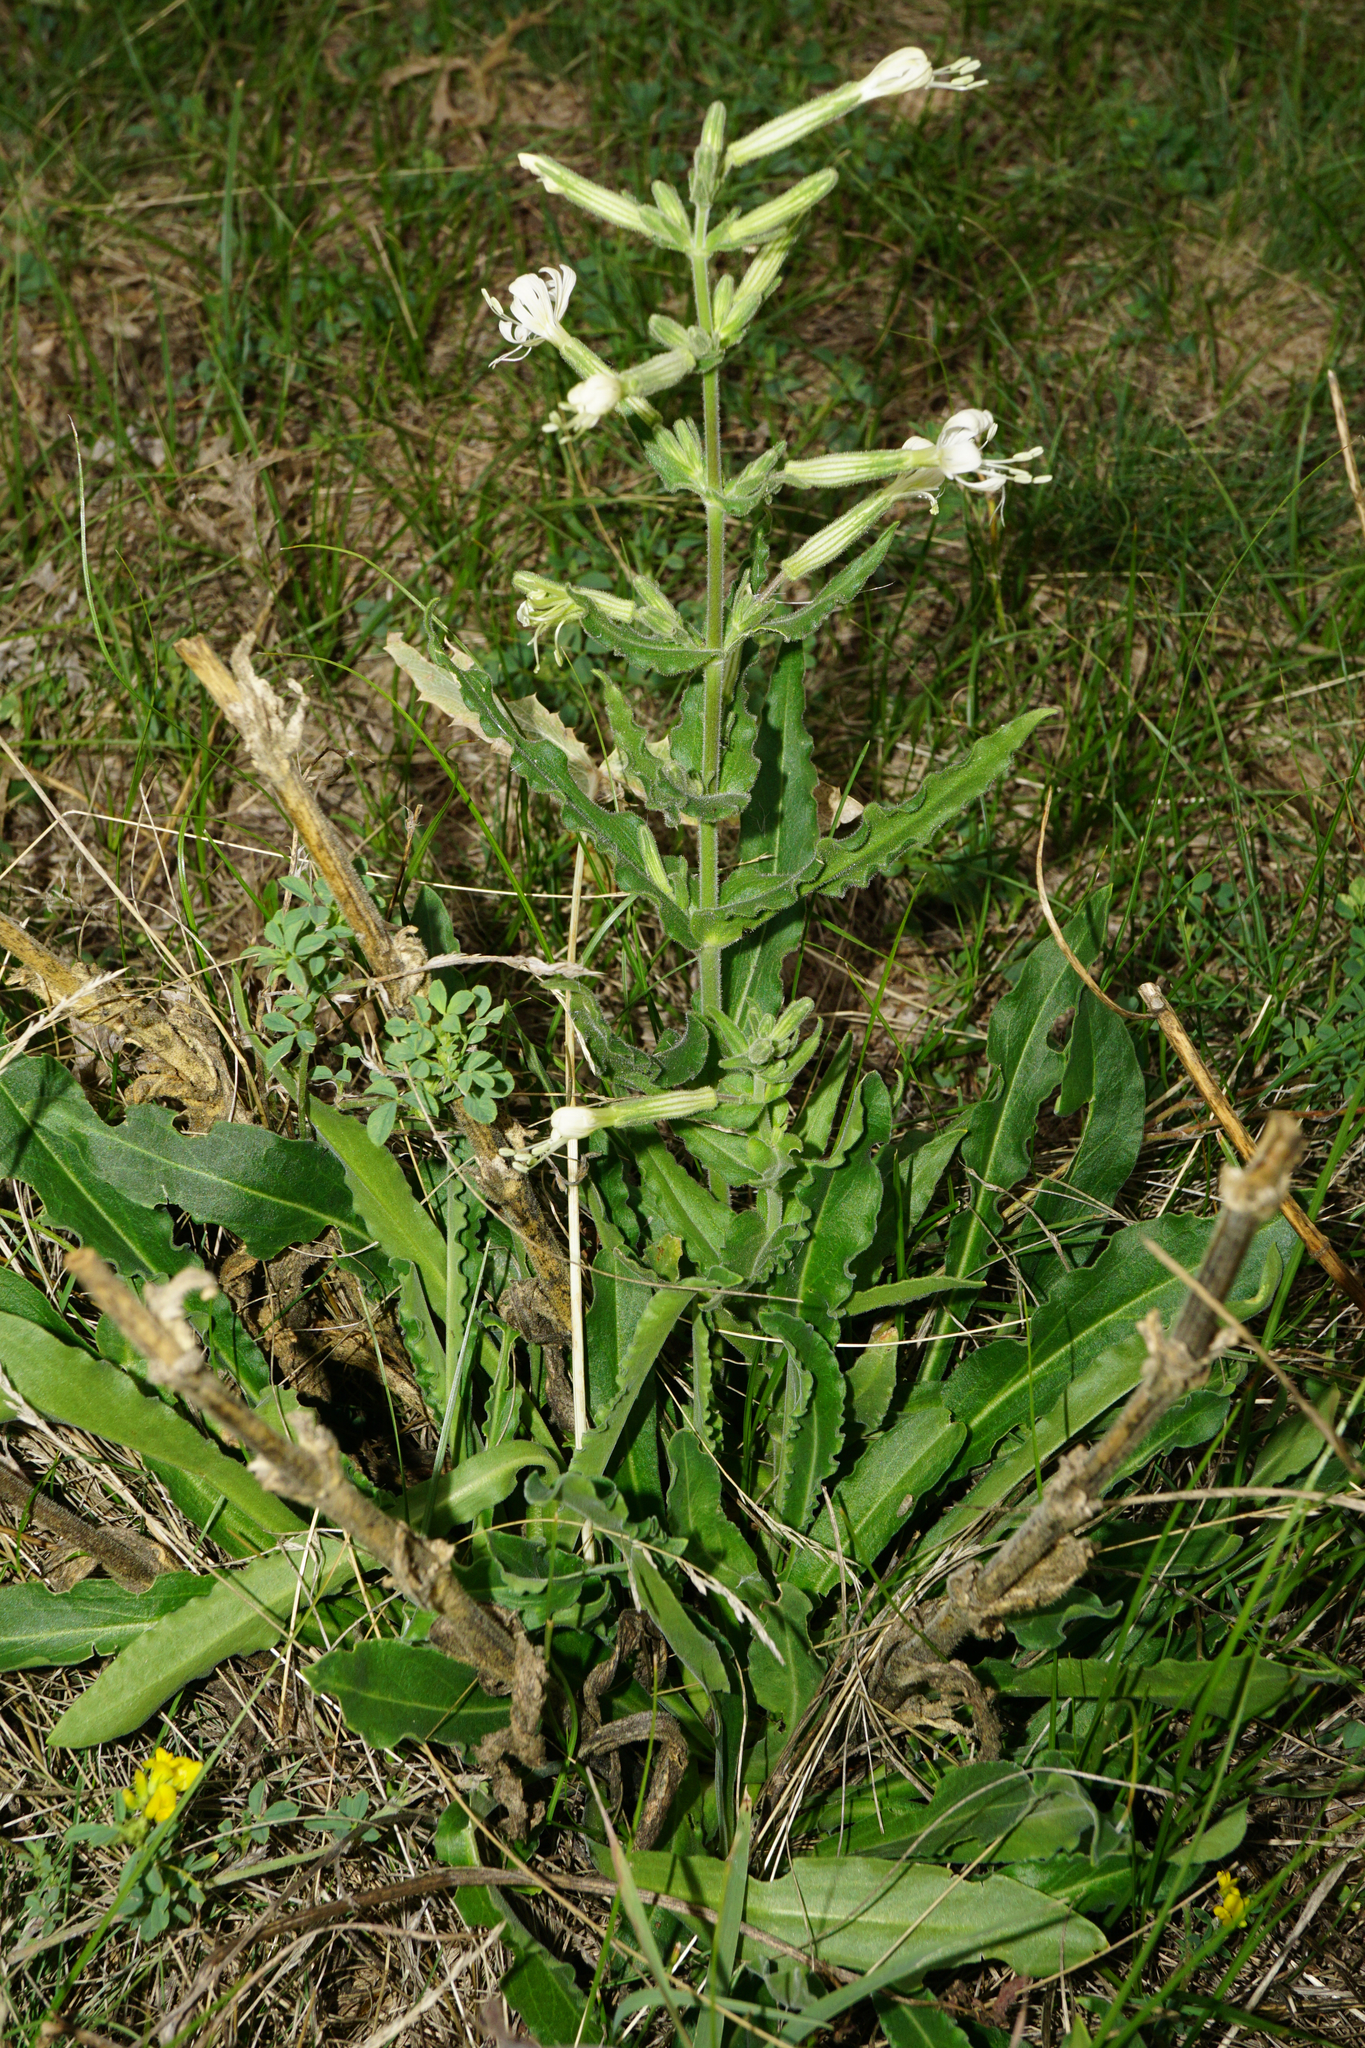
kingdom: Plantae
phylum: Tracheophyta
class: Magnoliopsida
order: Caryophyllales
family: Caryophyllaceae
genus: Silene
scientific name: Silene viscosa
